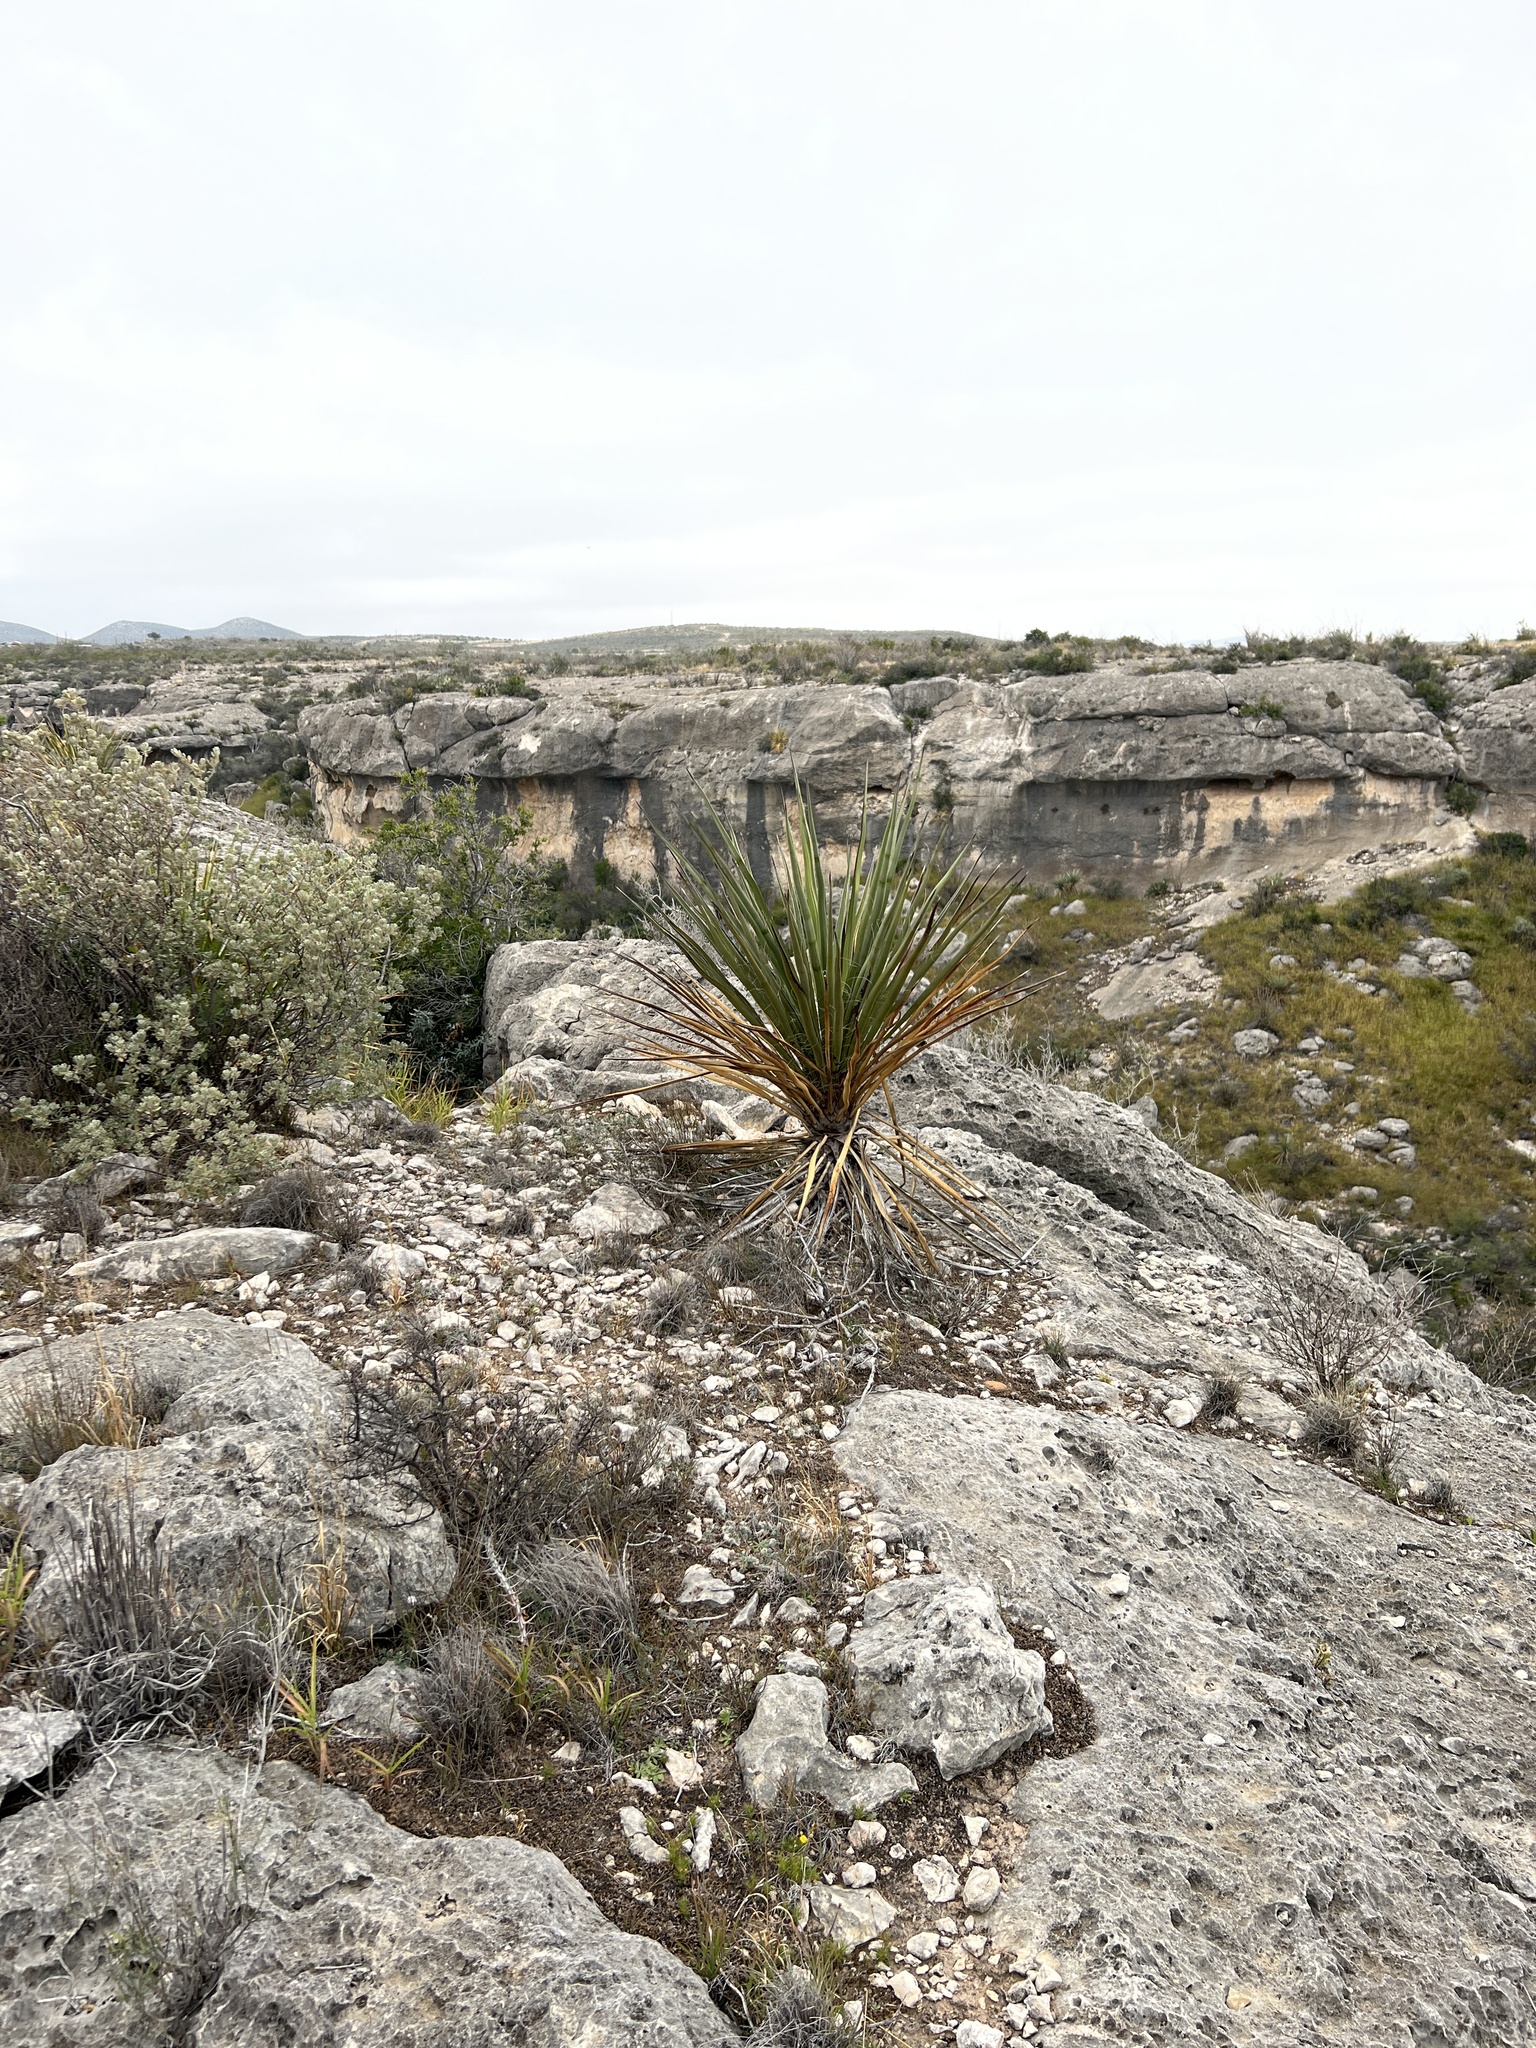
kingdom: Plantae
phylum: Tracheophyta
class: Liliopsida
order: Asparagales
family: Asparagaceae
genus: Yucca
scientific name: Yucca treculiana
